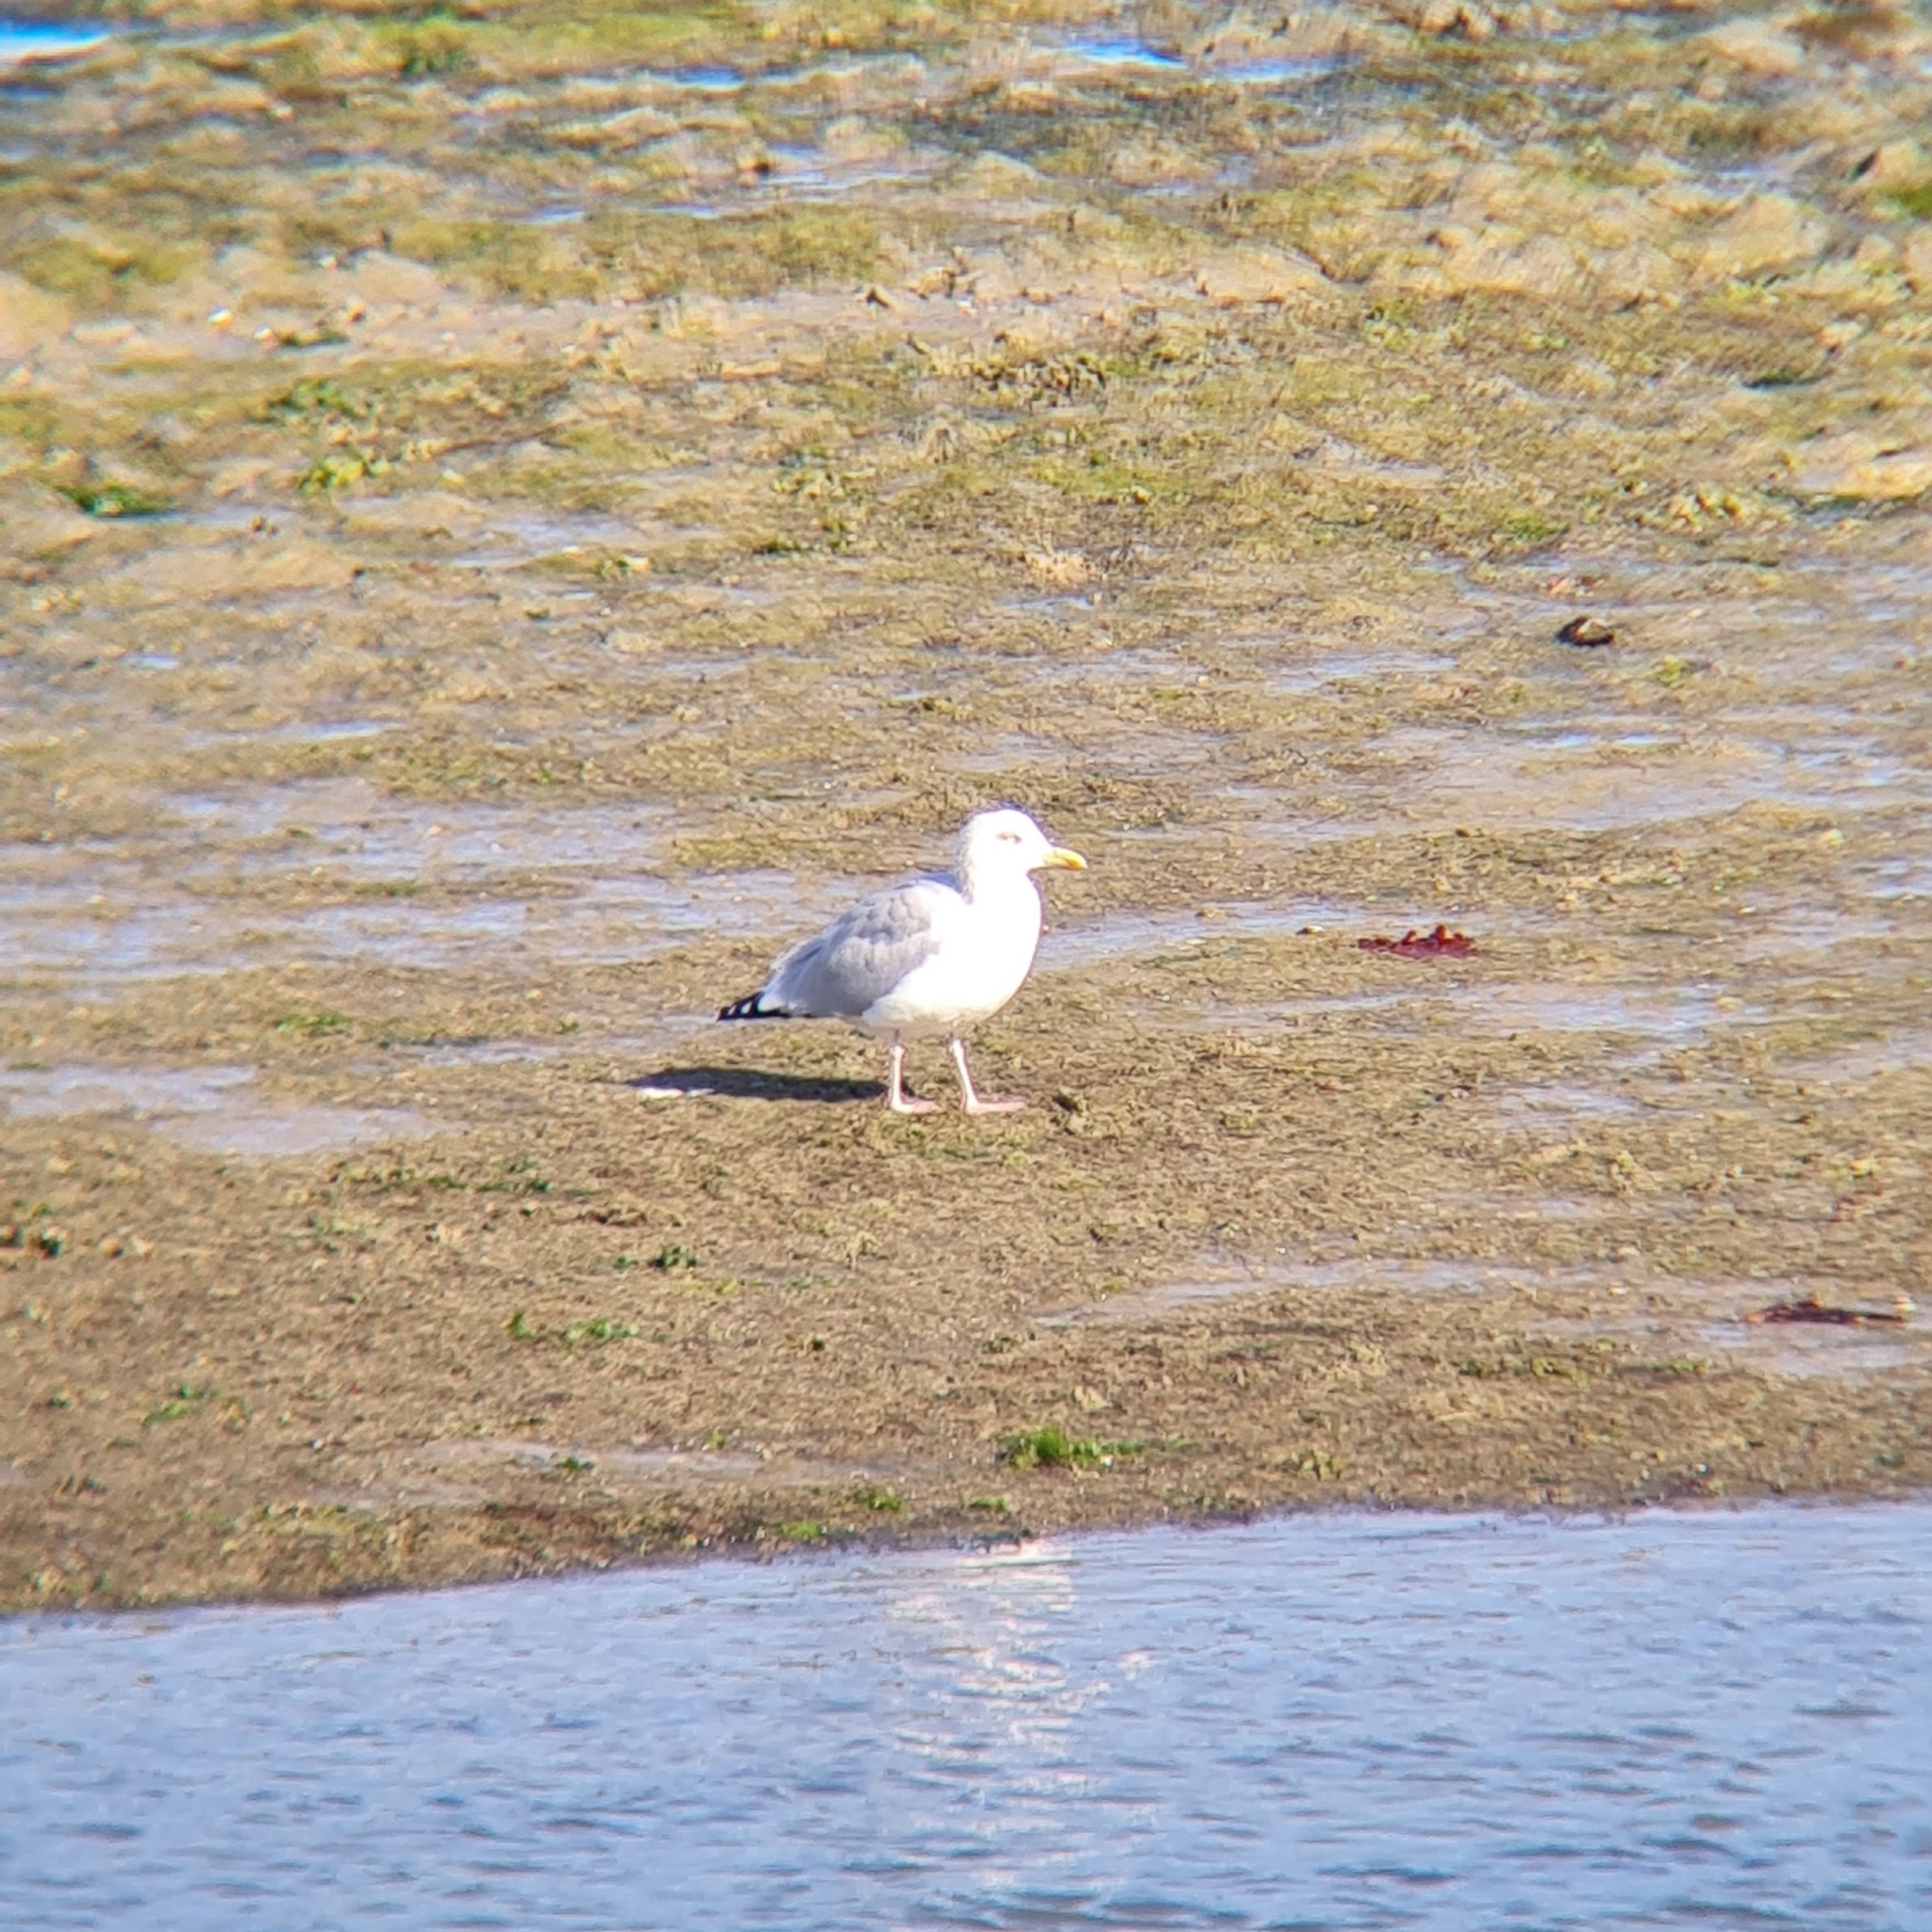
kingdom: Animalia
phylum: Chordata
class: Aves
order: Charadriiformes
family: Laridae
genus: Larus
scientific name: Larus argentatus
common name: Herring gull
